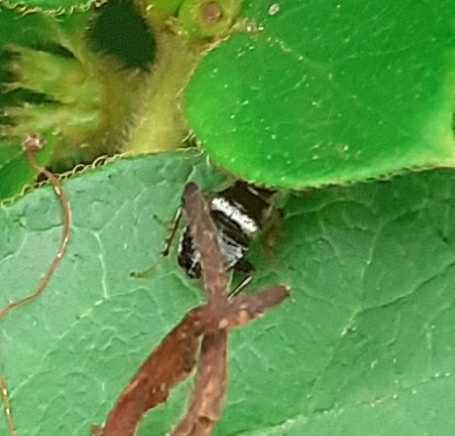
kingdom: Animalia
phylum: Arthropoda
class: Insecta
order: Blattodea
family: Ectobiidae
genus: Planuncus
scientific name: Planuncus vinzi
